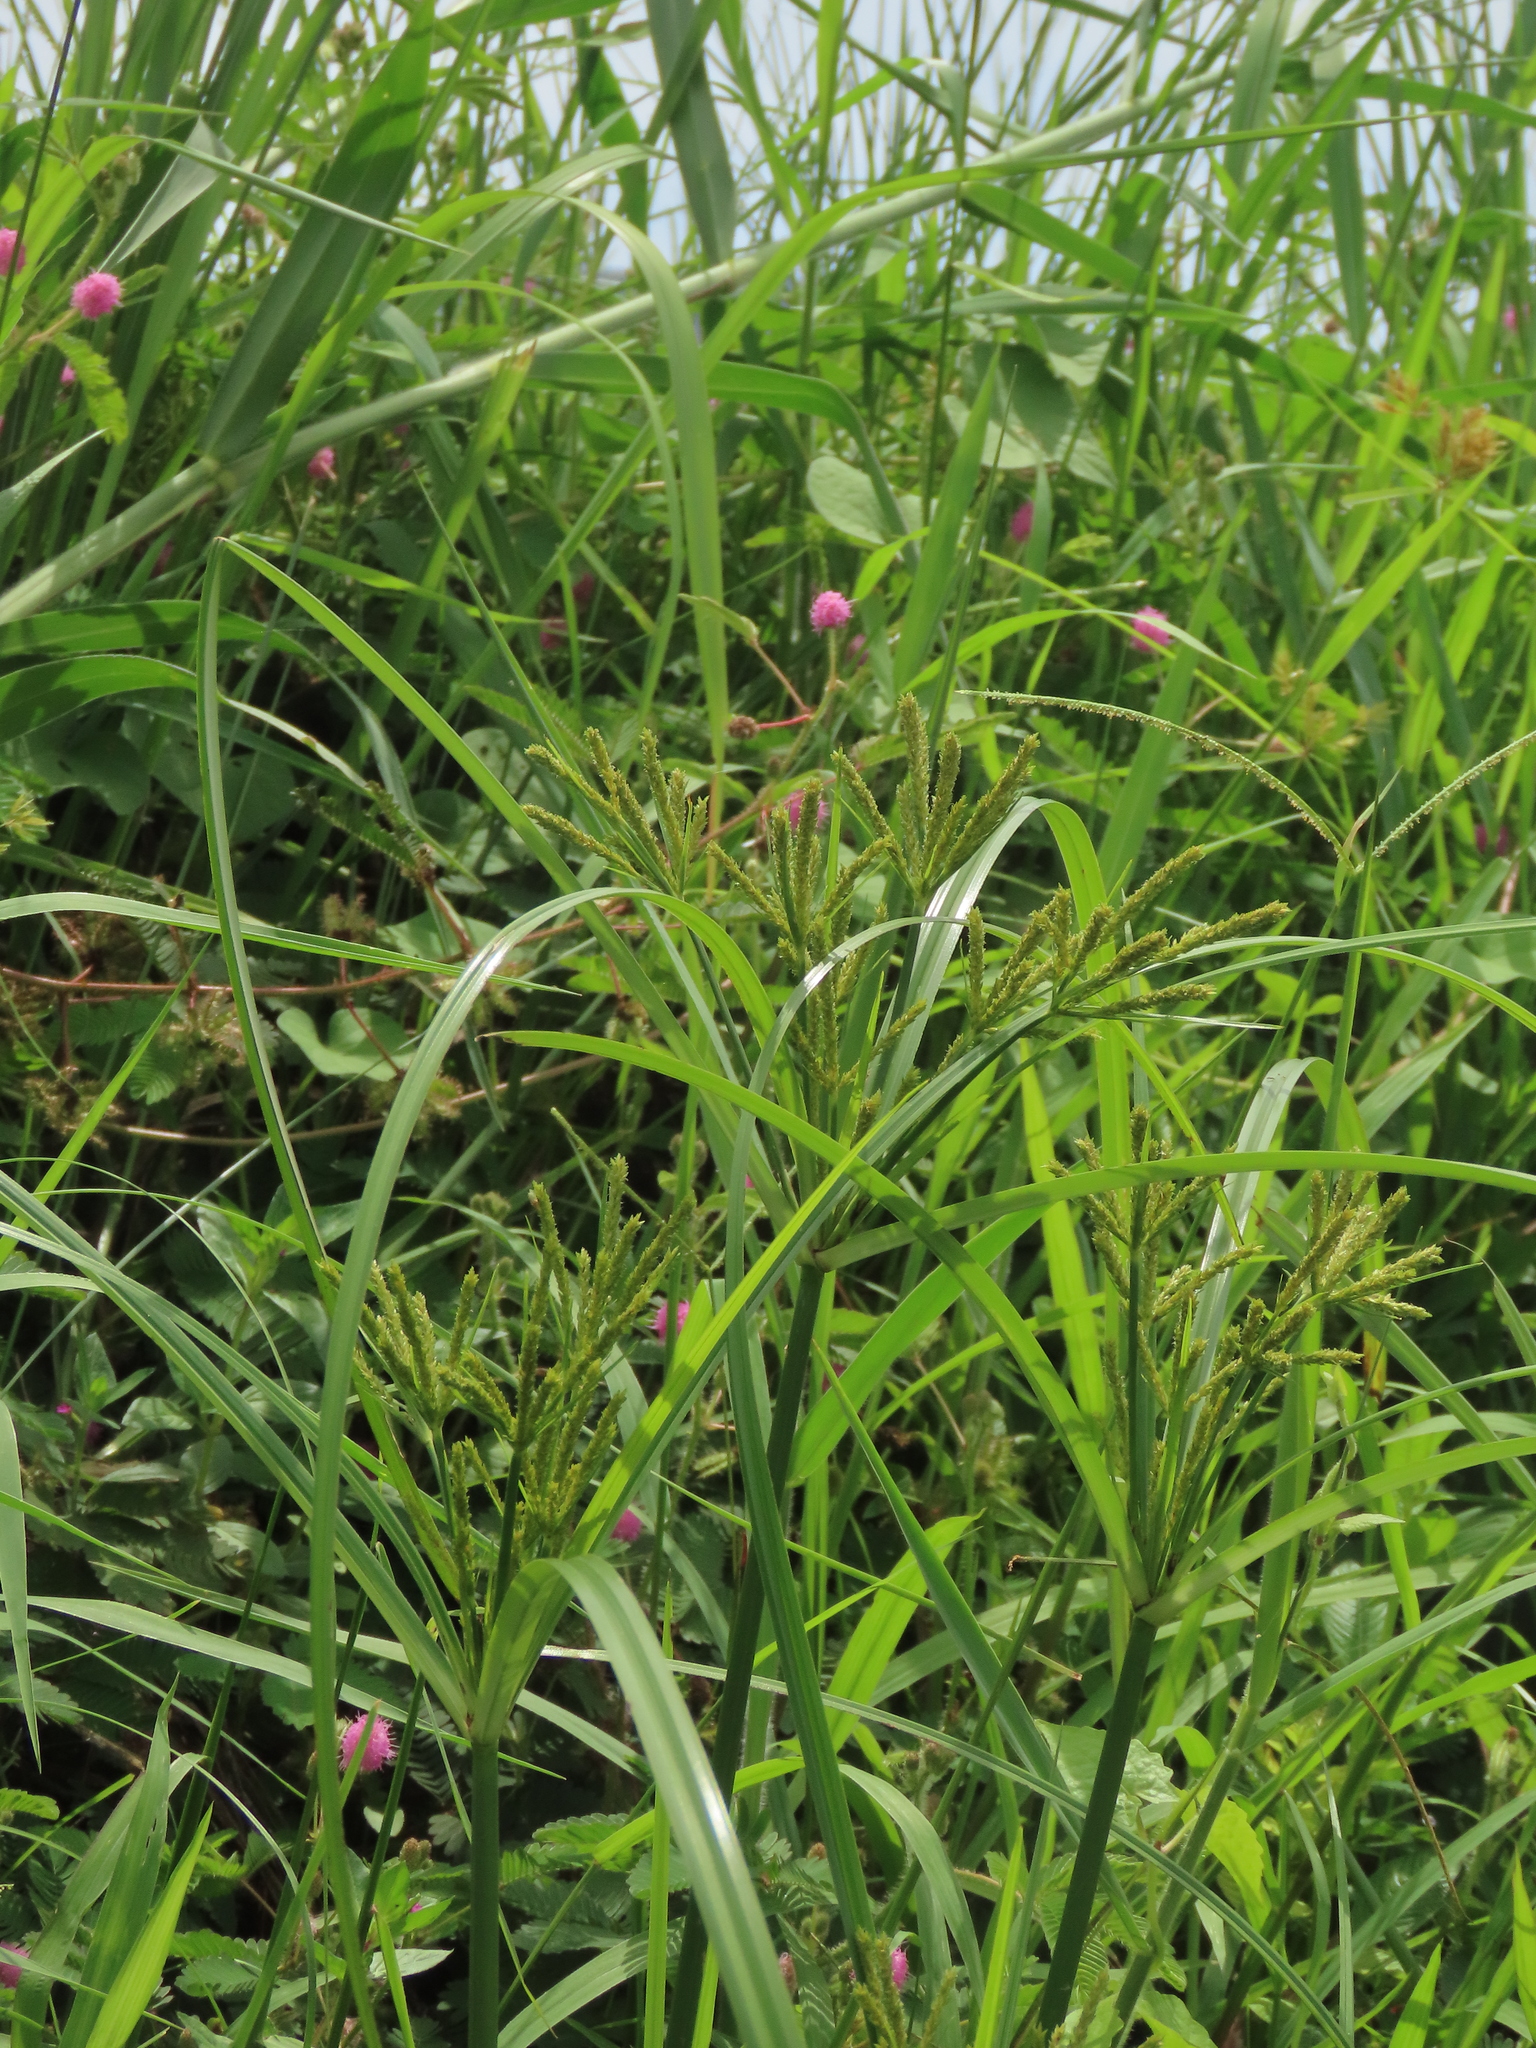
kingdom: Plantae
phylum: Tracheophyta
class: Liliopsida
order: Poales
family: Cyperaceae
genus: Cyperus
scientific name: Cyperus imbricatus
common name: Shingle flatsedge
